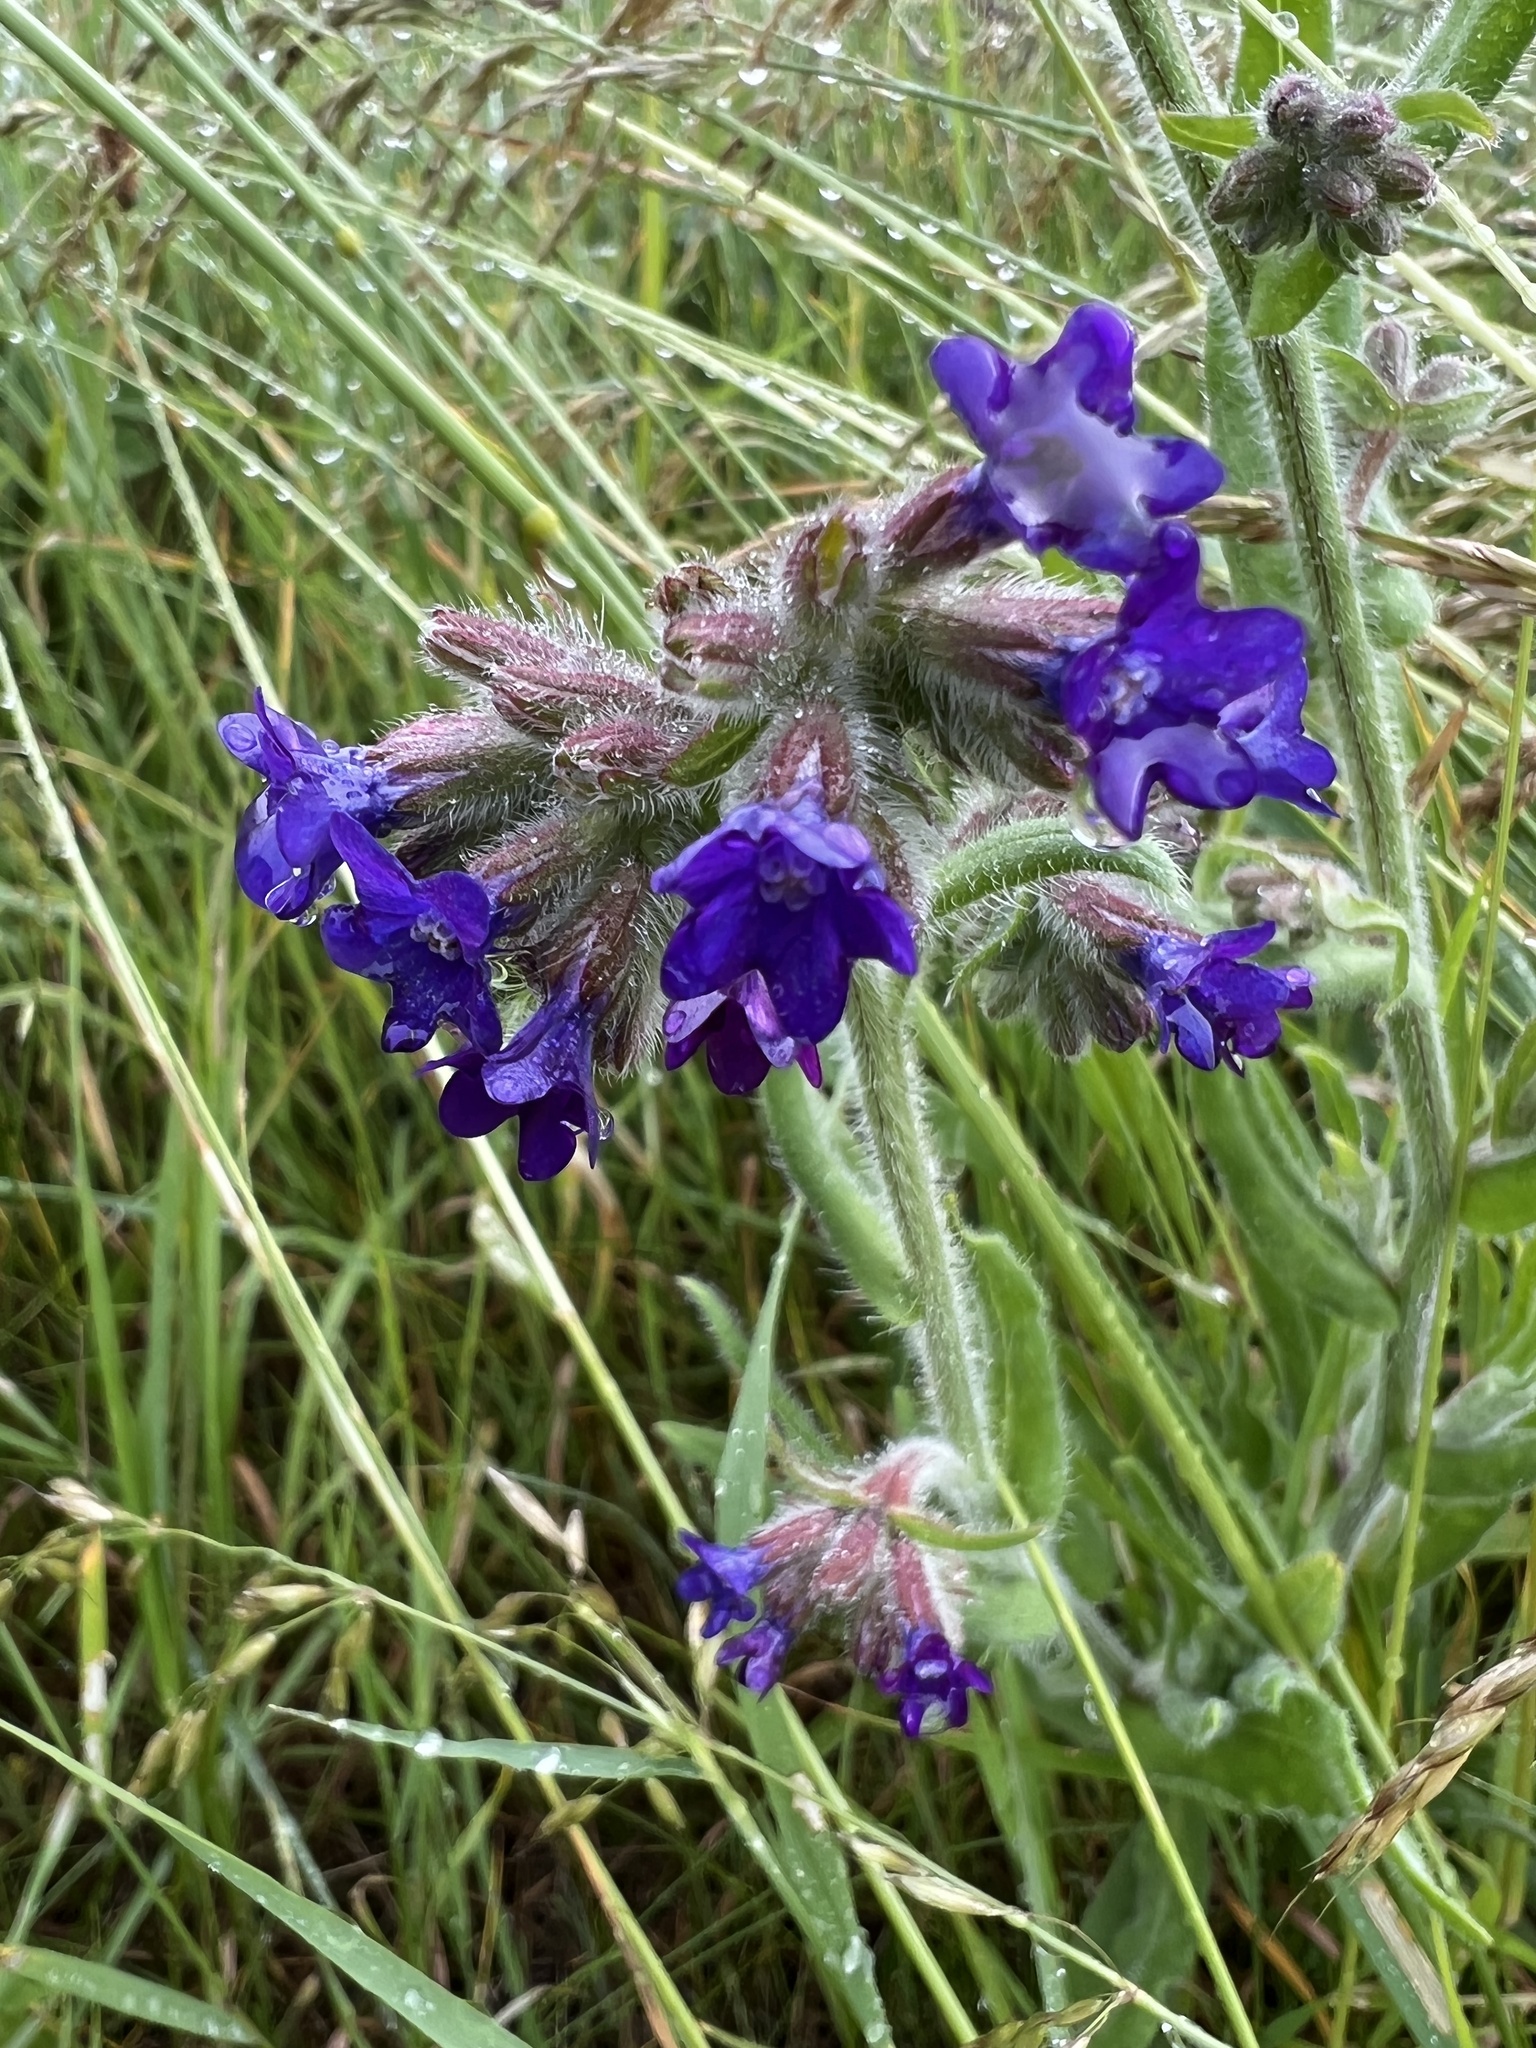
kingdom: Plantae
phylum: Tracheophyta
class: Magnoliopsida
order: Boraginales
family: Boraginaceae
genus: Anchusa
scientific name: Anchusa officinalis
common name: Alkanet
